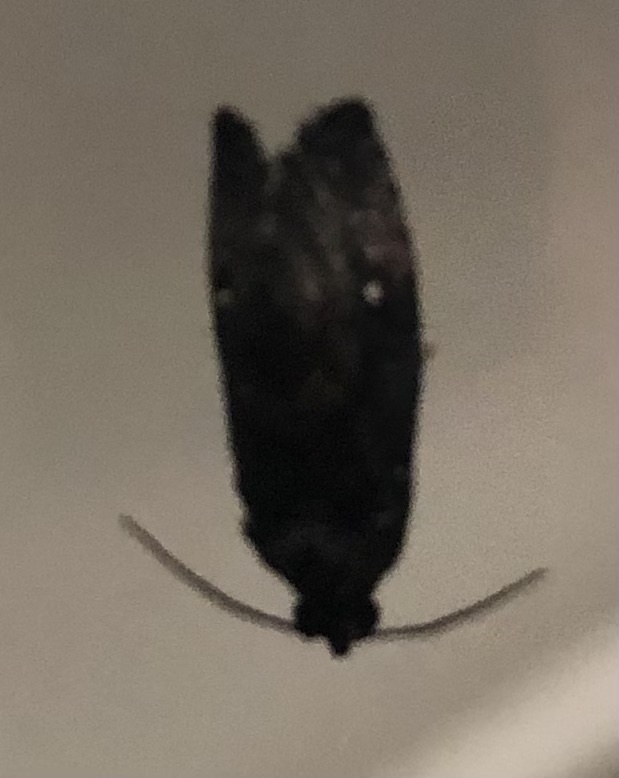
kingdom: Animalia
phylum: Arthropoda
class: Insecta
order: Lepidoptera
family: Tortricidae
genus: Gymnandrosoma
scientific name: Gymnandrosoma punctidiscanum
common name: Dotted ecdytolopha moth
